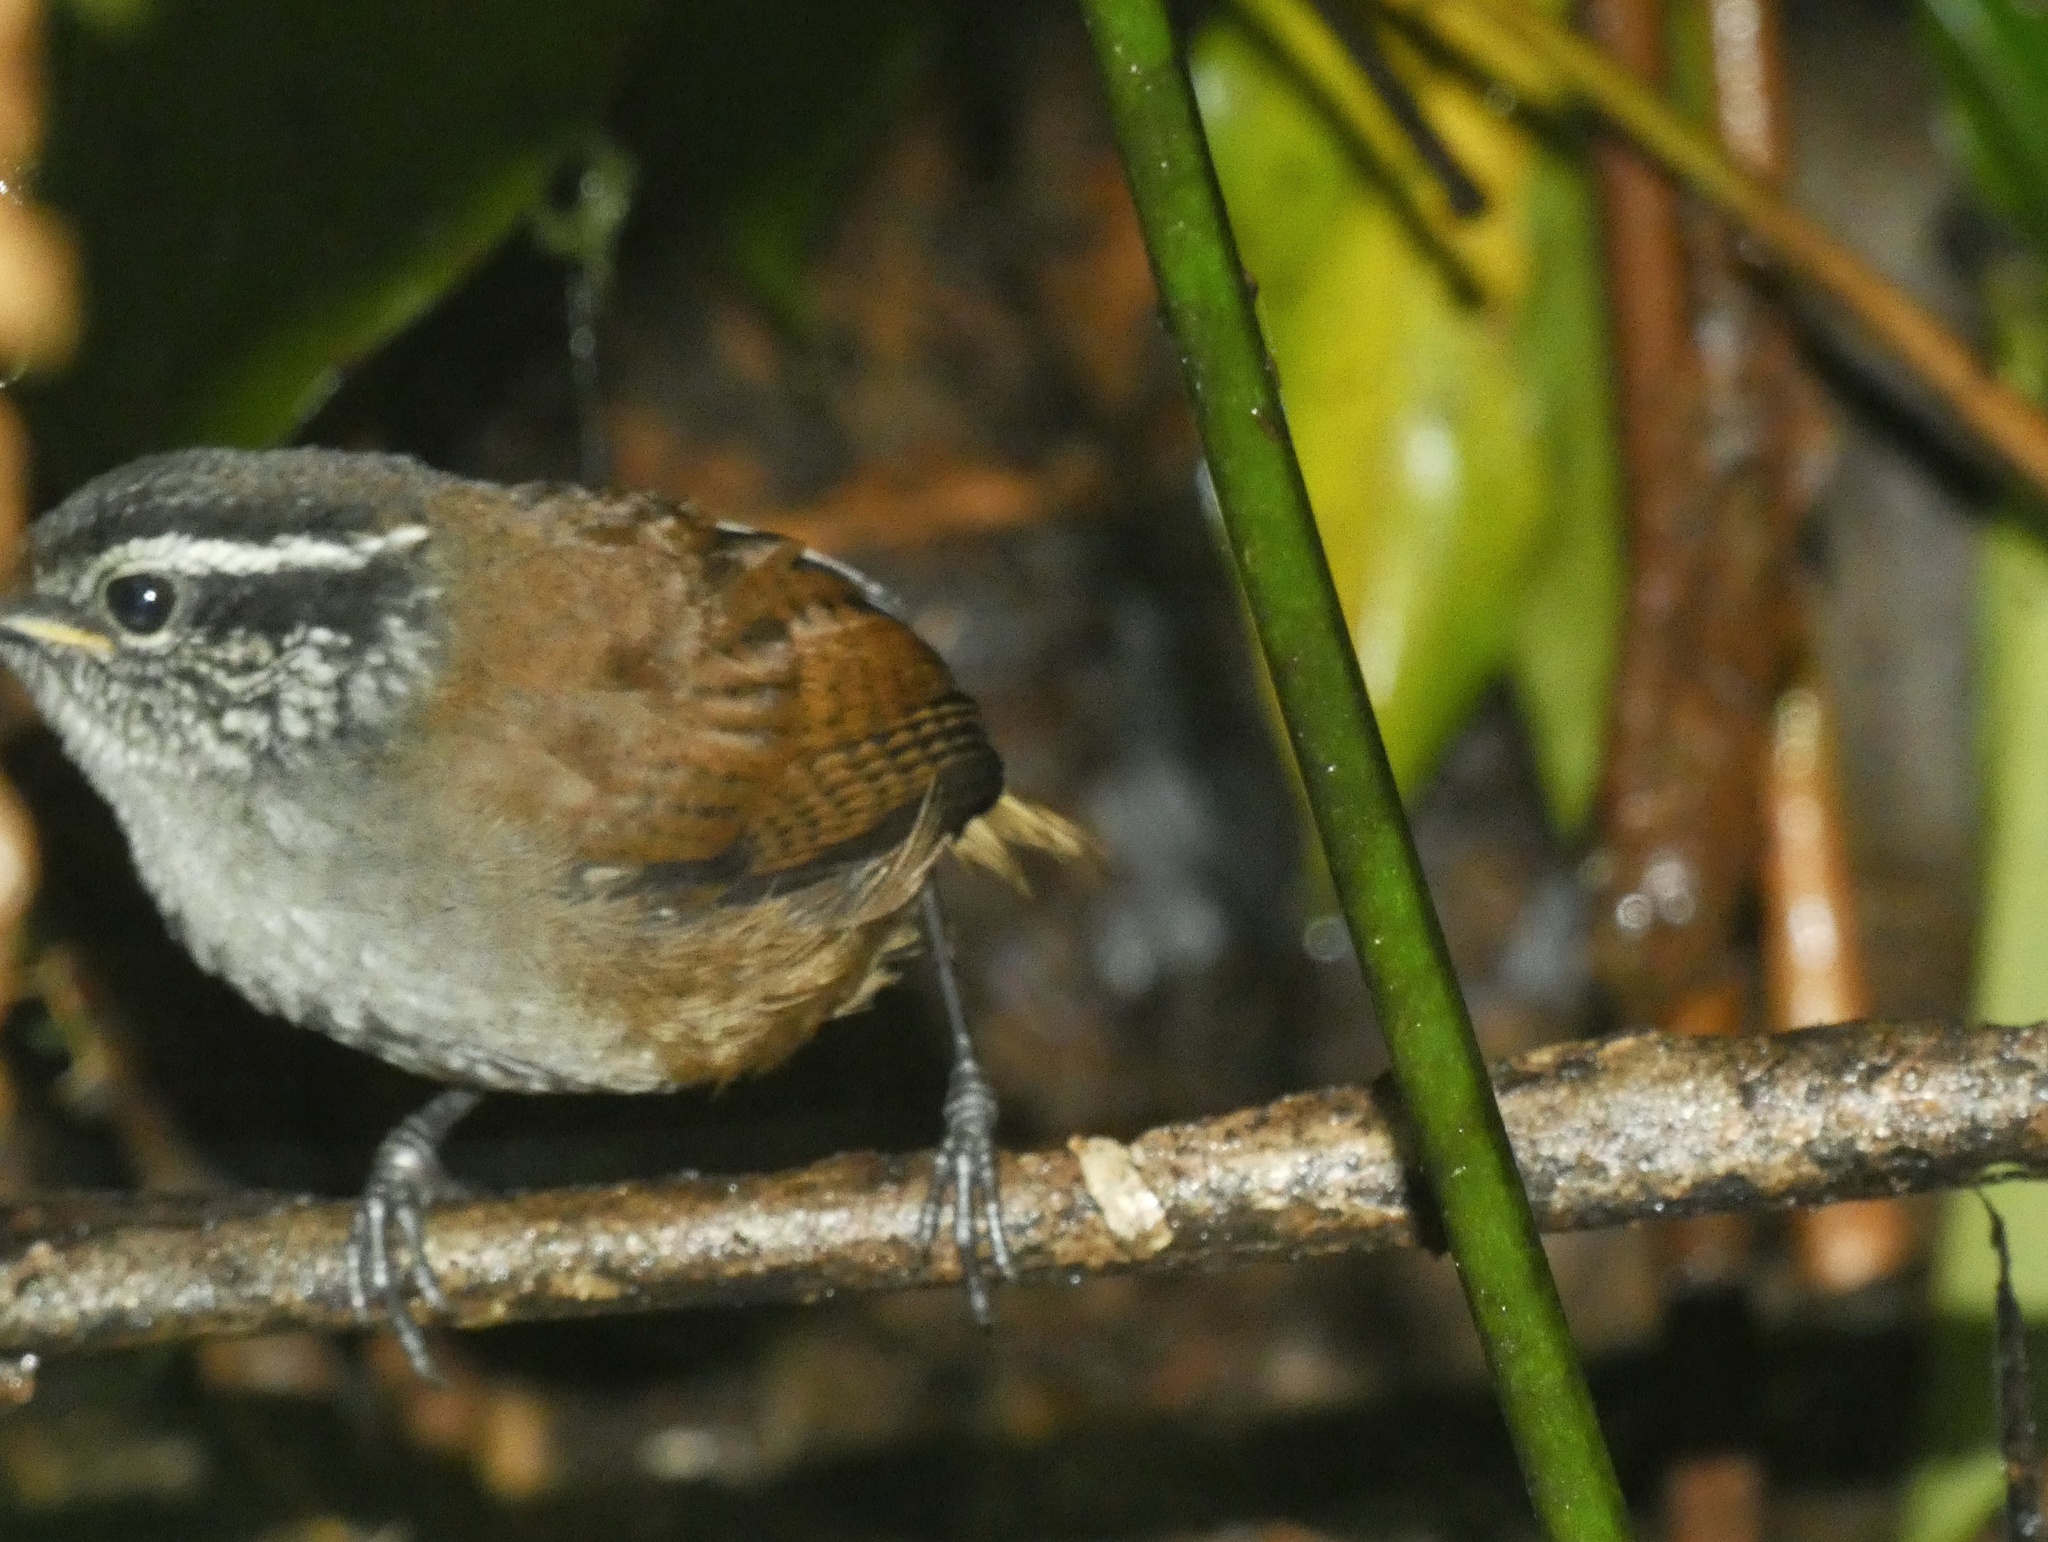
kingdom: Animalia
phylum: Chordata
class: Aves
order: Passeriformes
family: Troglodytidae
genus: Henicorhina
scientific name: Henicorhina leucophrys
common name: Gray-breasted wood-wren
